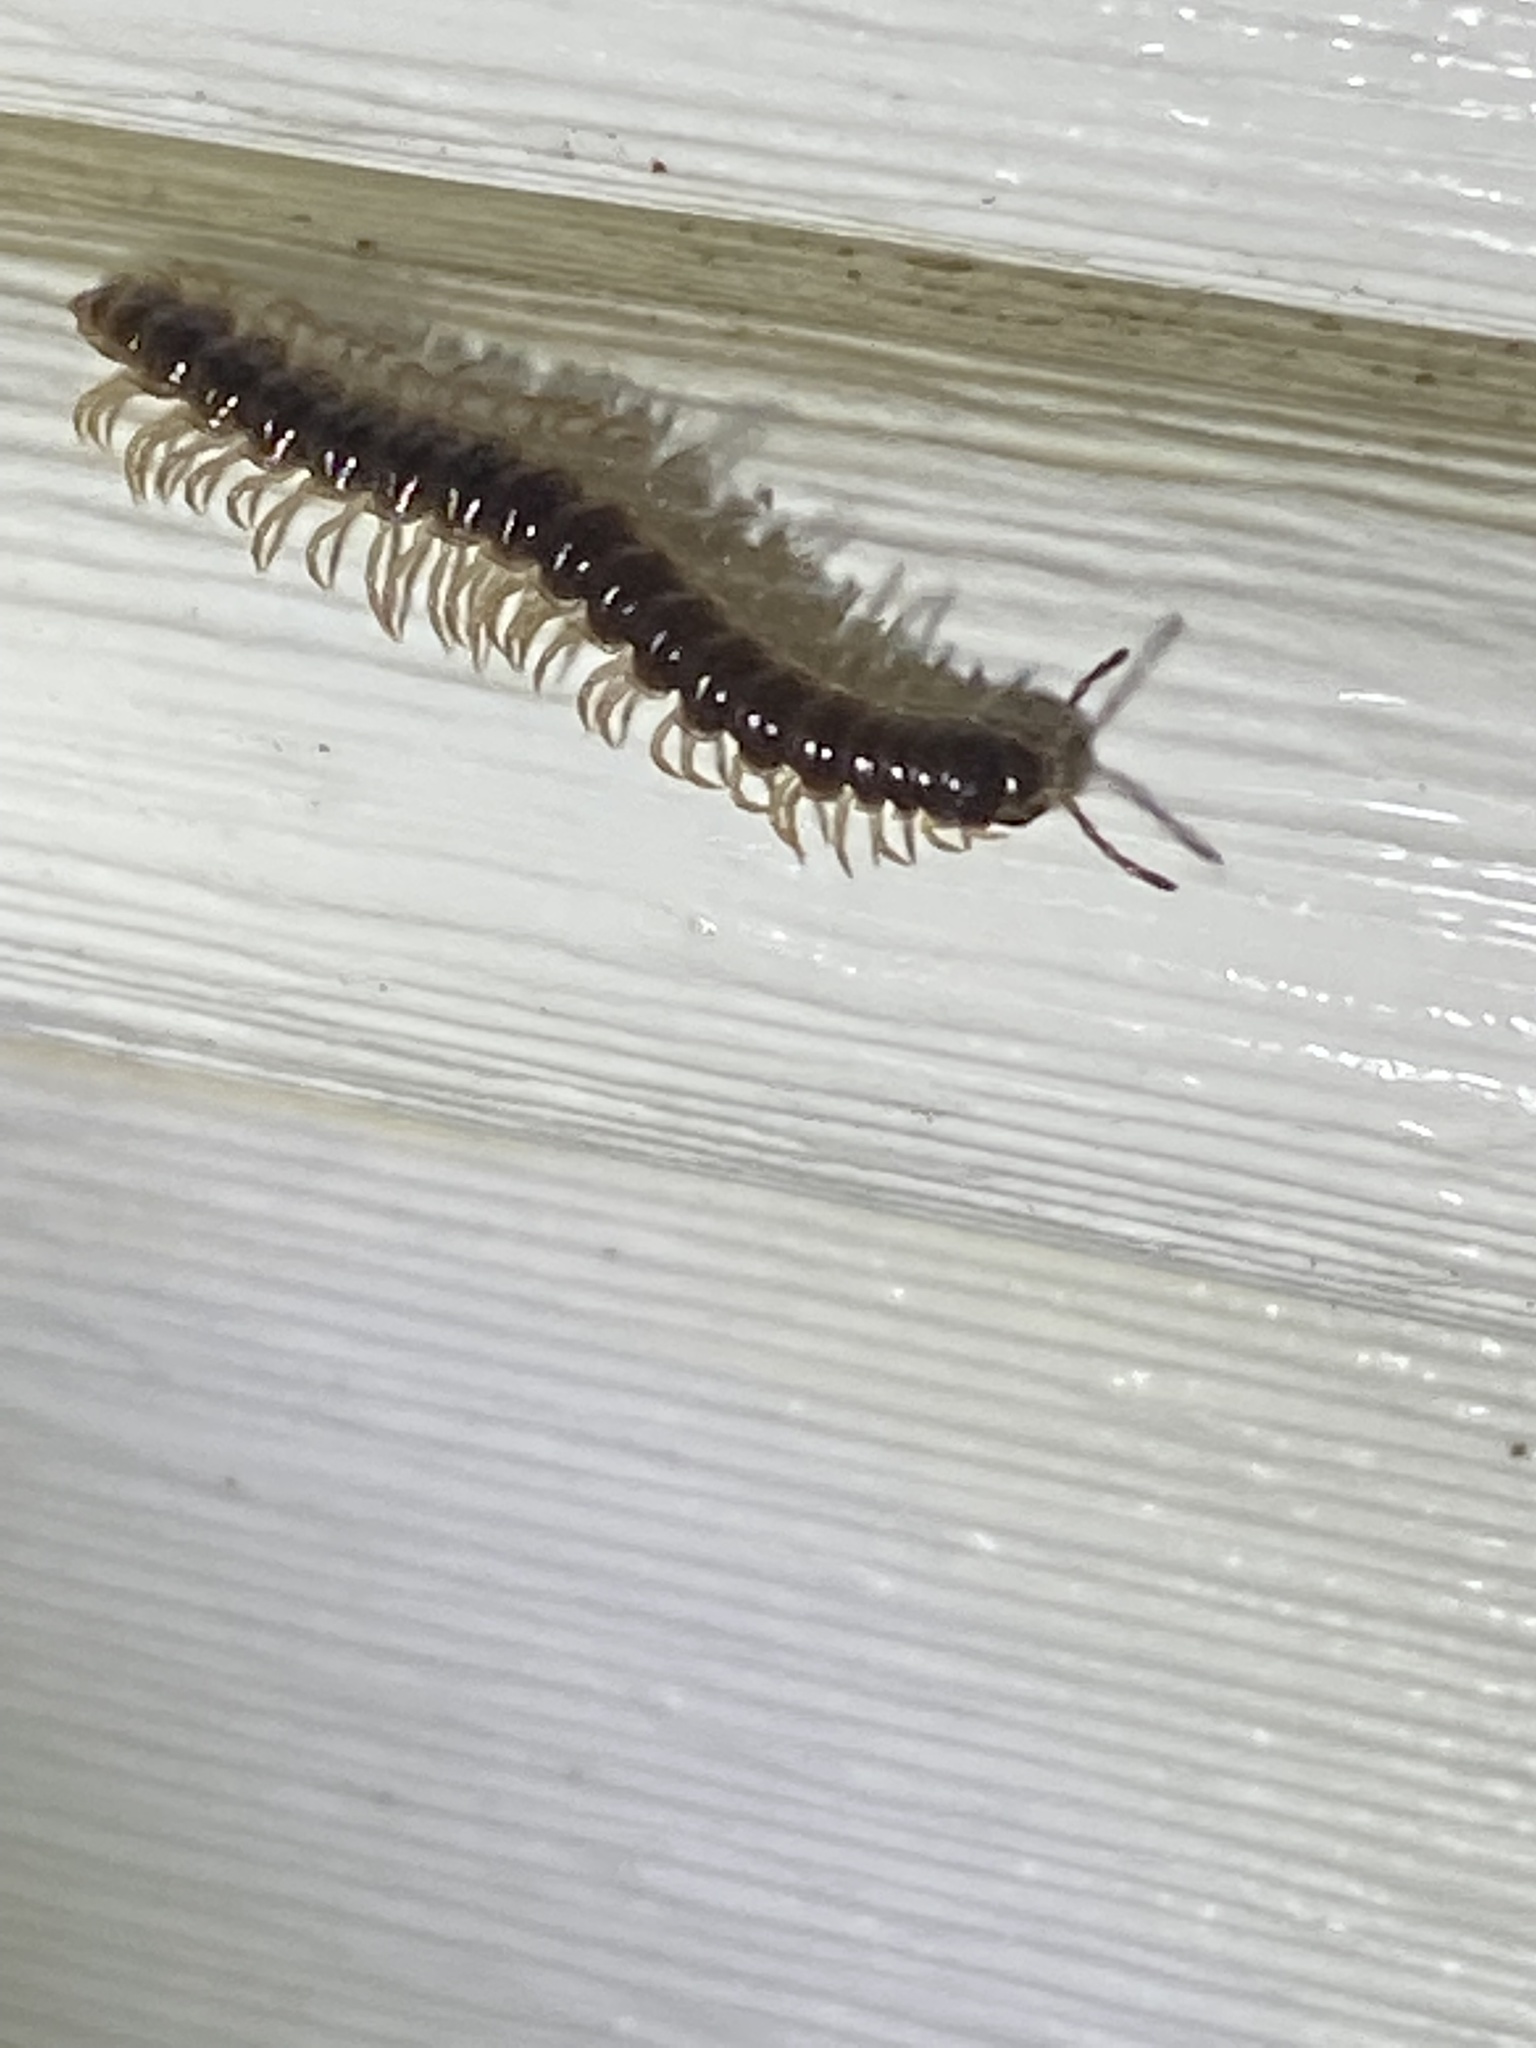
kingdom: Animalia
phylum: Arthropoda
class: Diplopoda
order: Polydesmida
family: Paradoxosomatidae
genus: Oxidus
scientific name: Oxidus gracilis
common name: Greenhouse millipede
